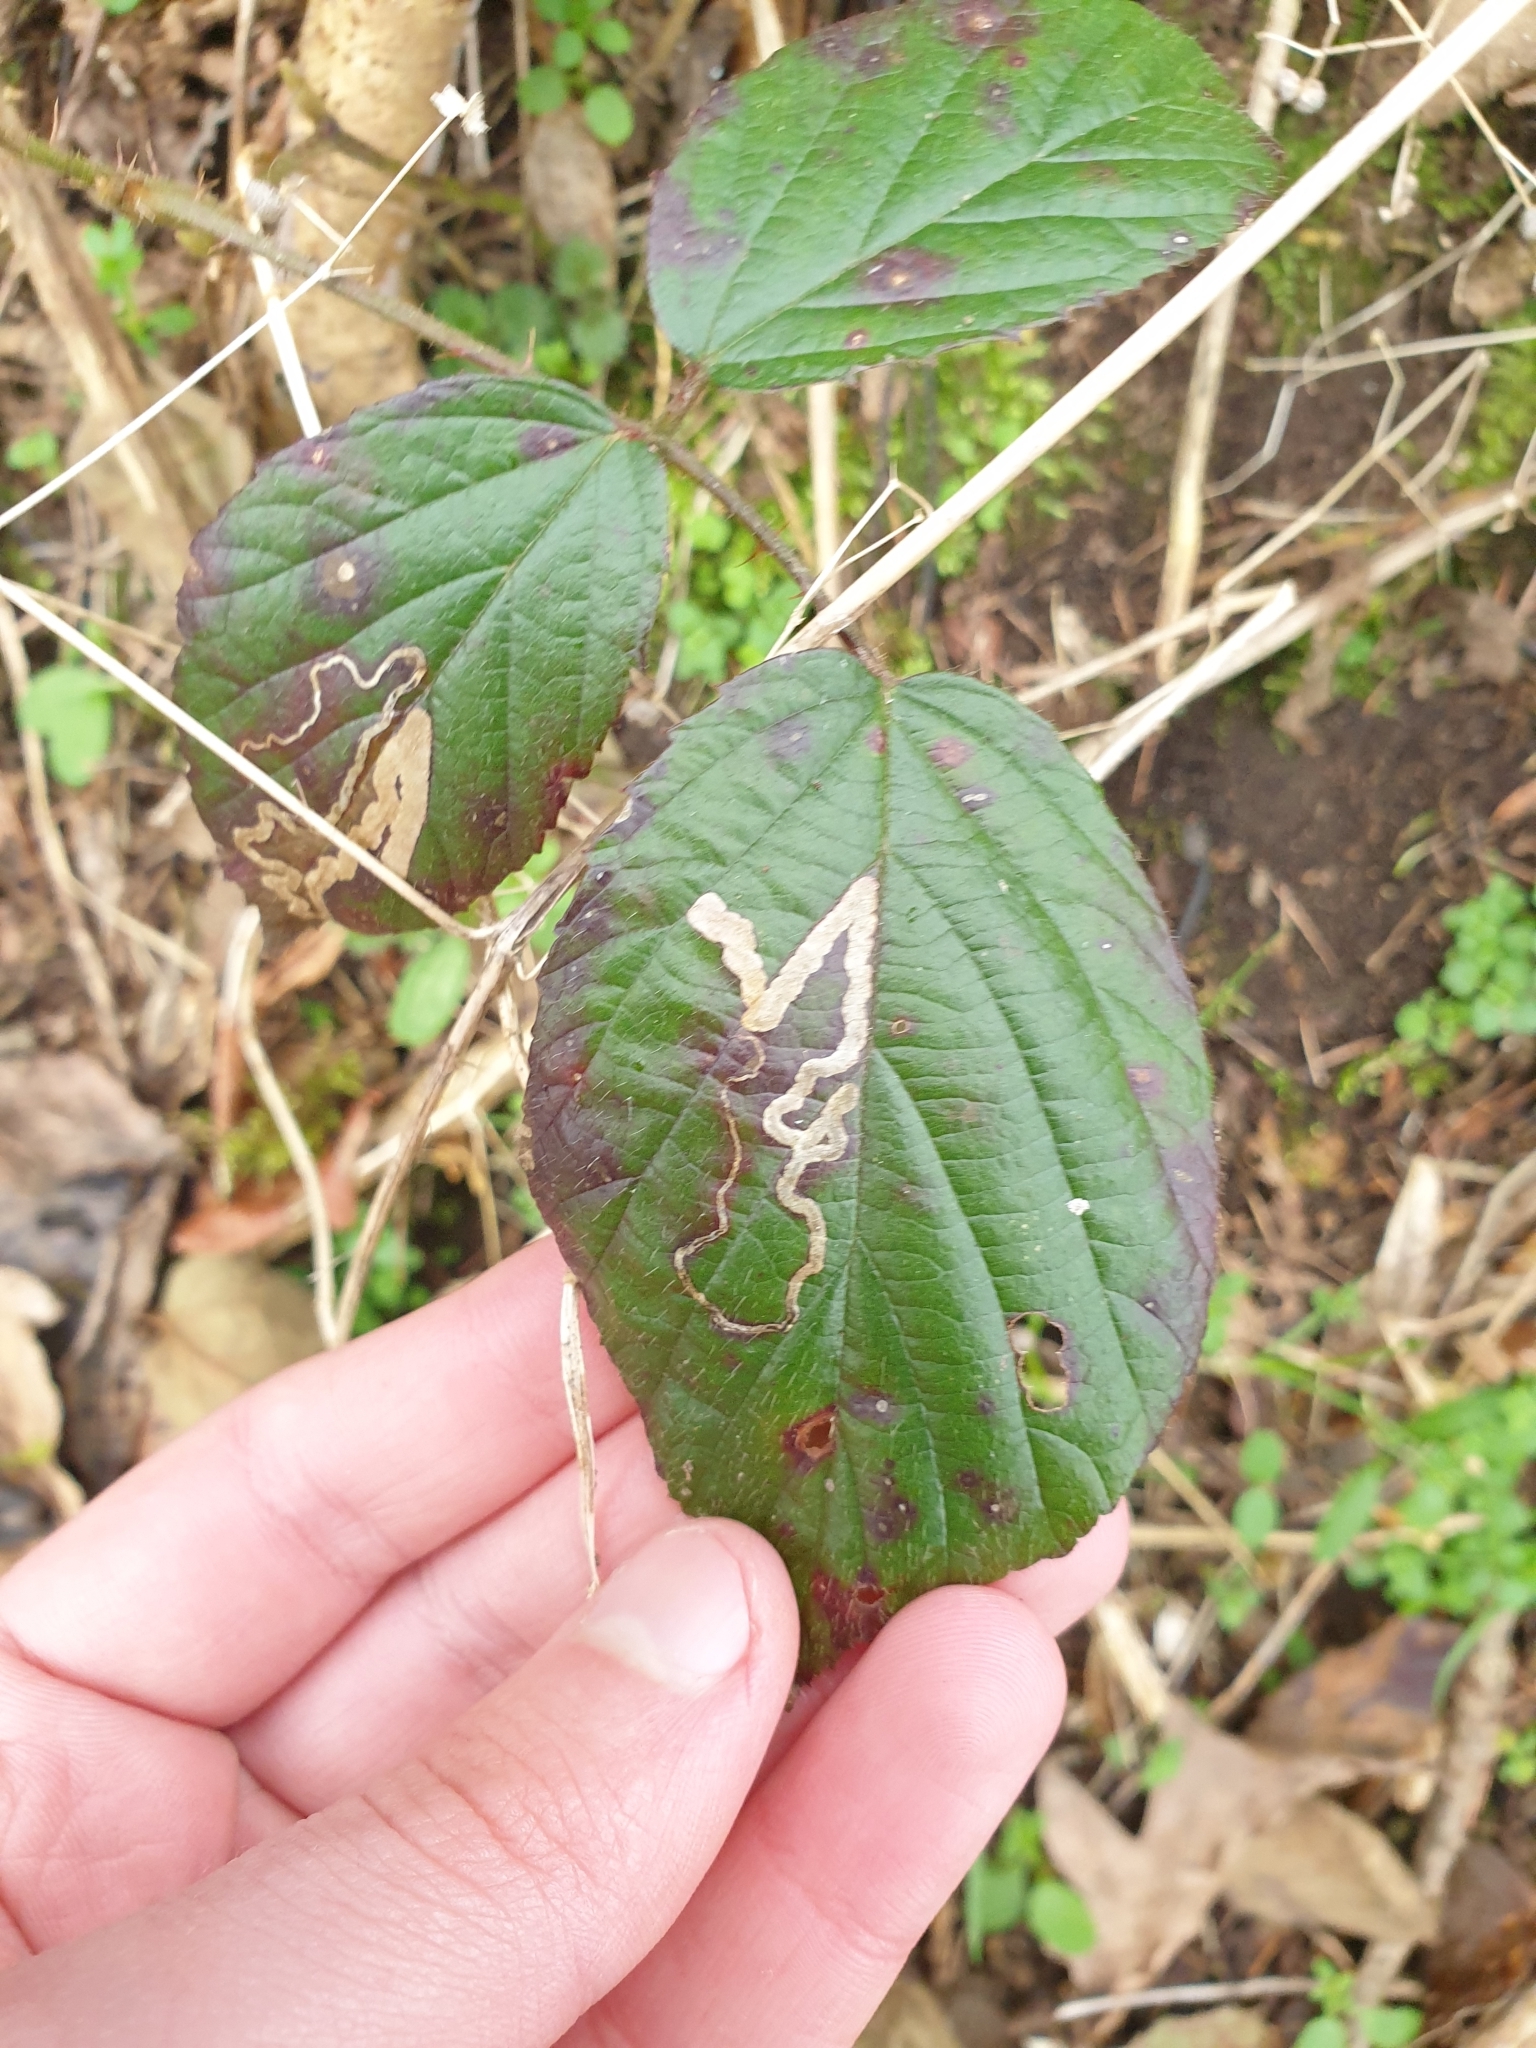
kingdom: Animalia
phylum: Arthropoda
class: Insecta
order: Lepidoptera
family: Nepticulidae
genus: Stigmella
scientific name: Stigmella aurella
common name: Golden pigmy
